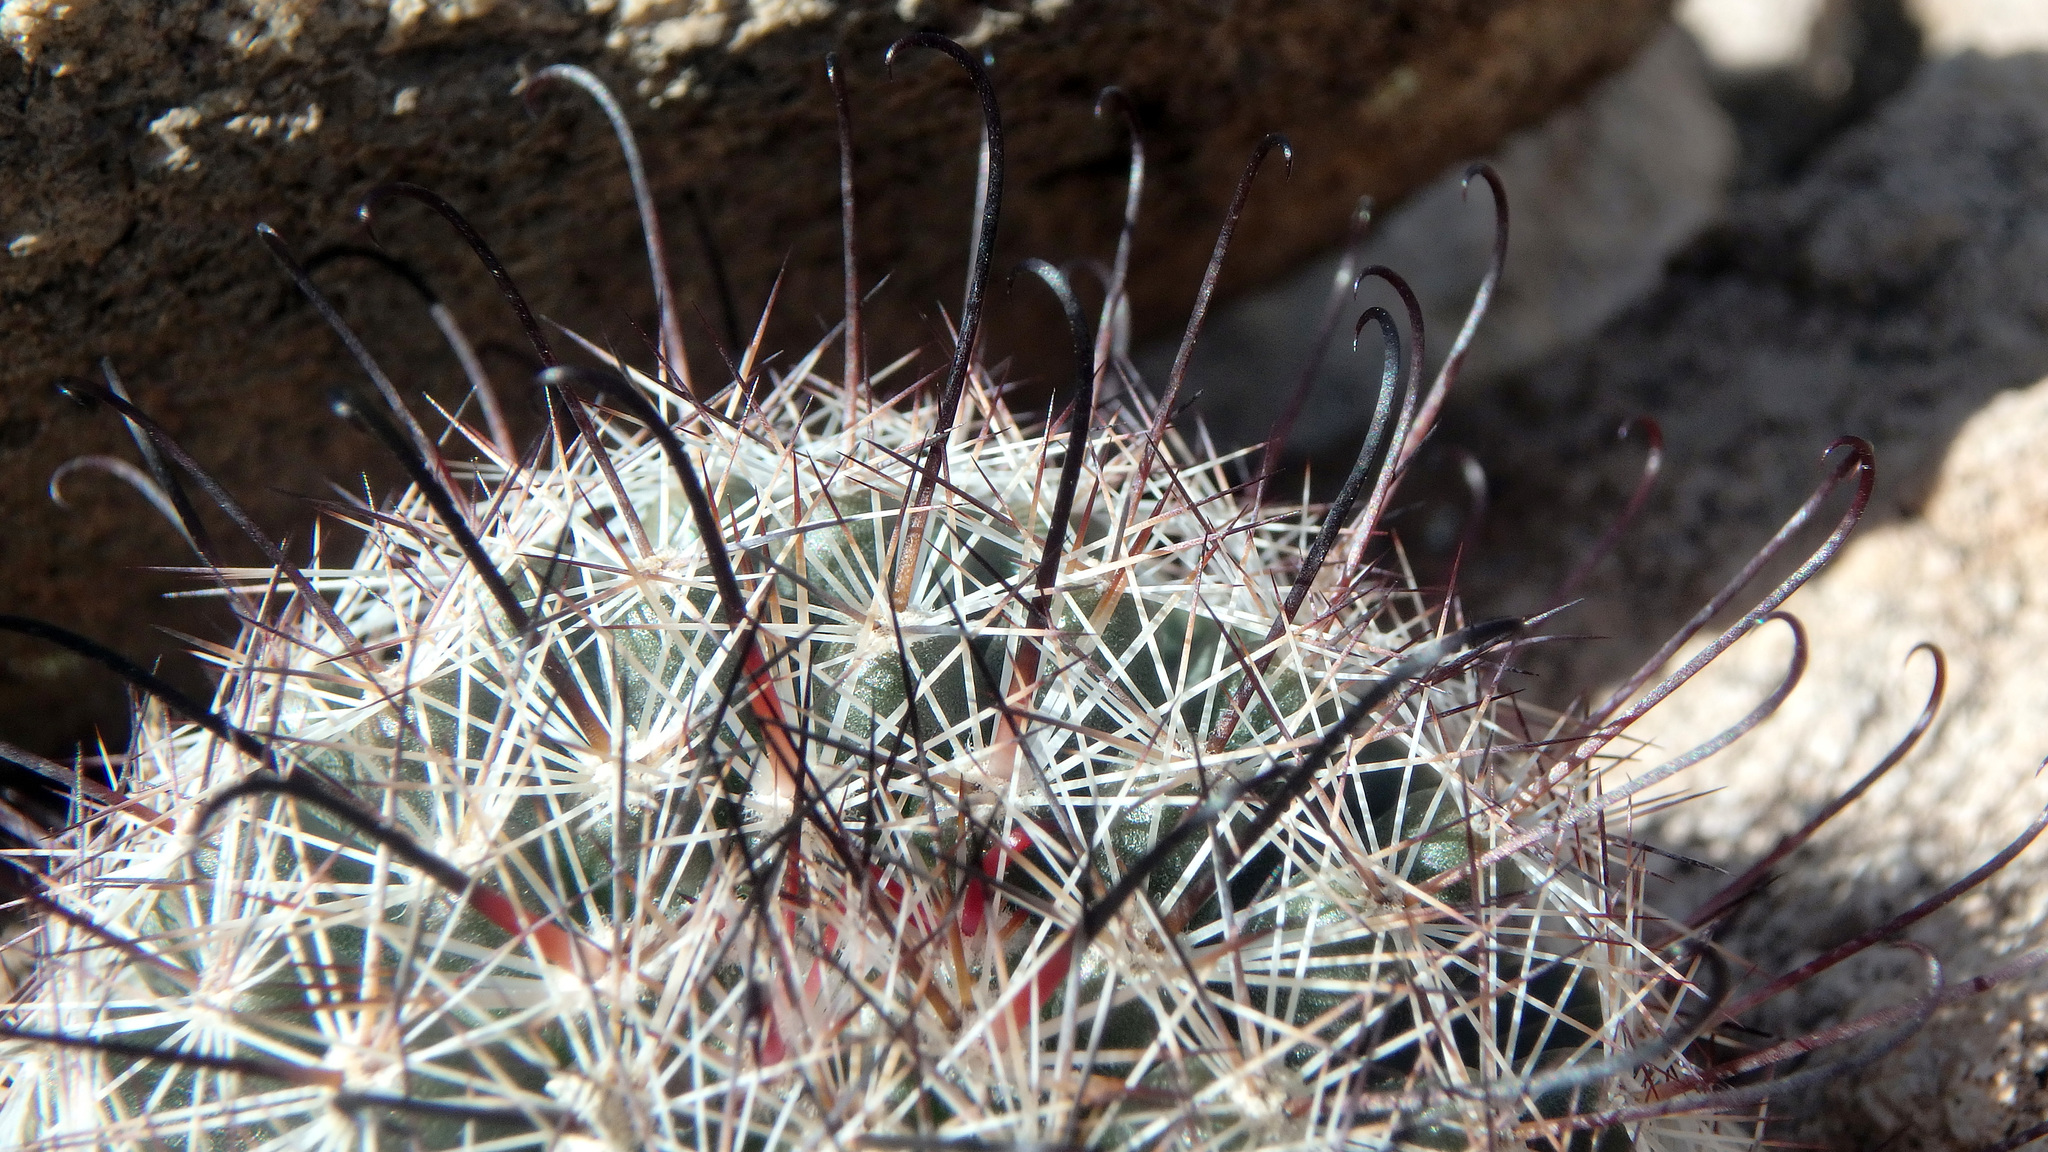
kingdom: Plantae
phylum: Tracheophyta
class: Magnoliopsida
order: Caryophyllales
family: Cactaceae
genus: Cochemiea
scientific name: Cochemiea grahamii
